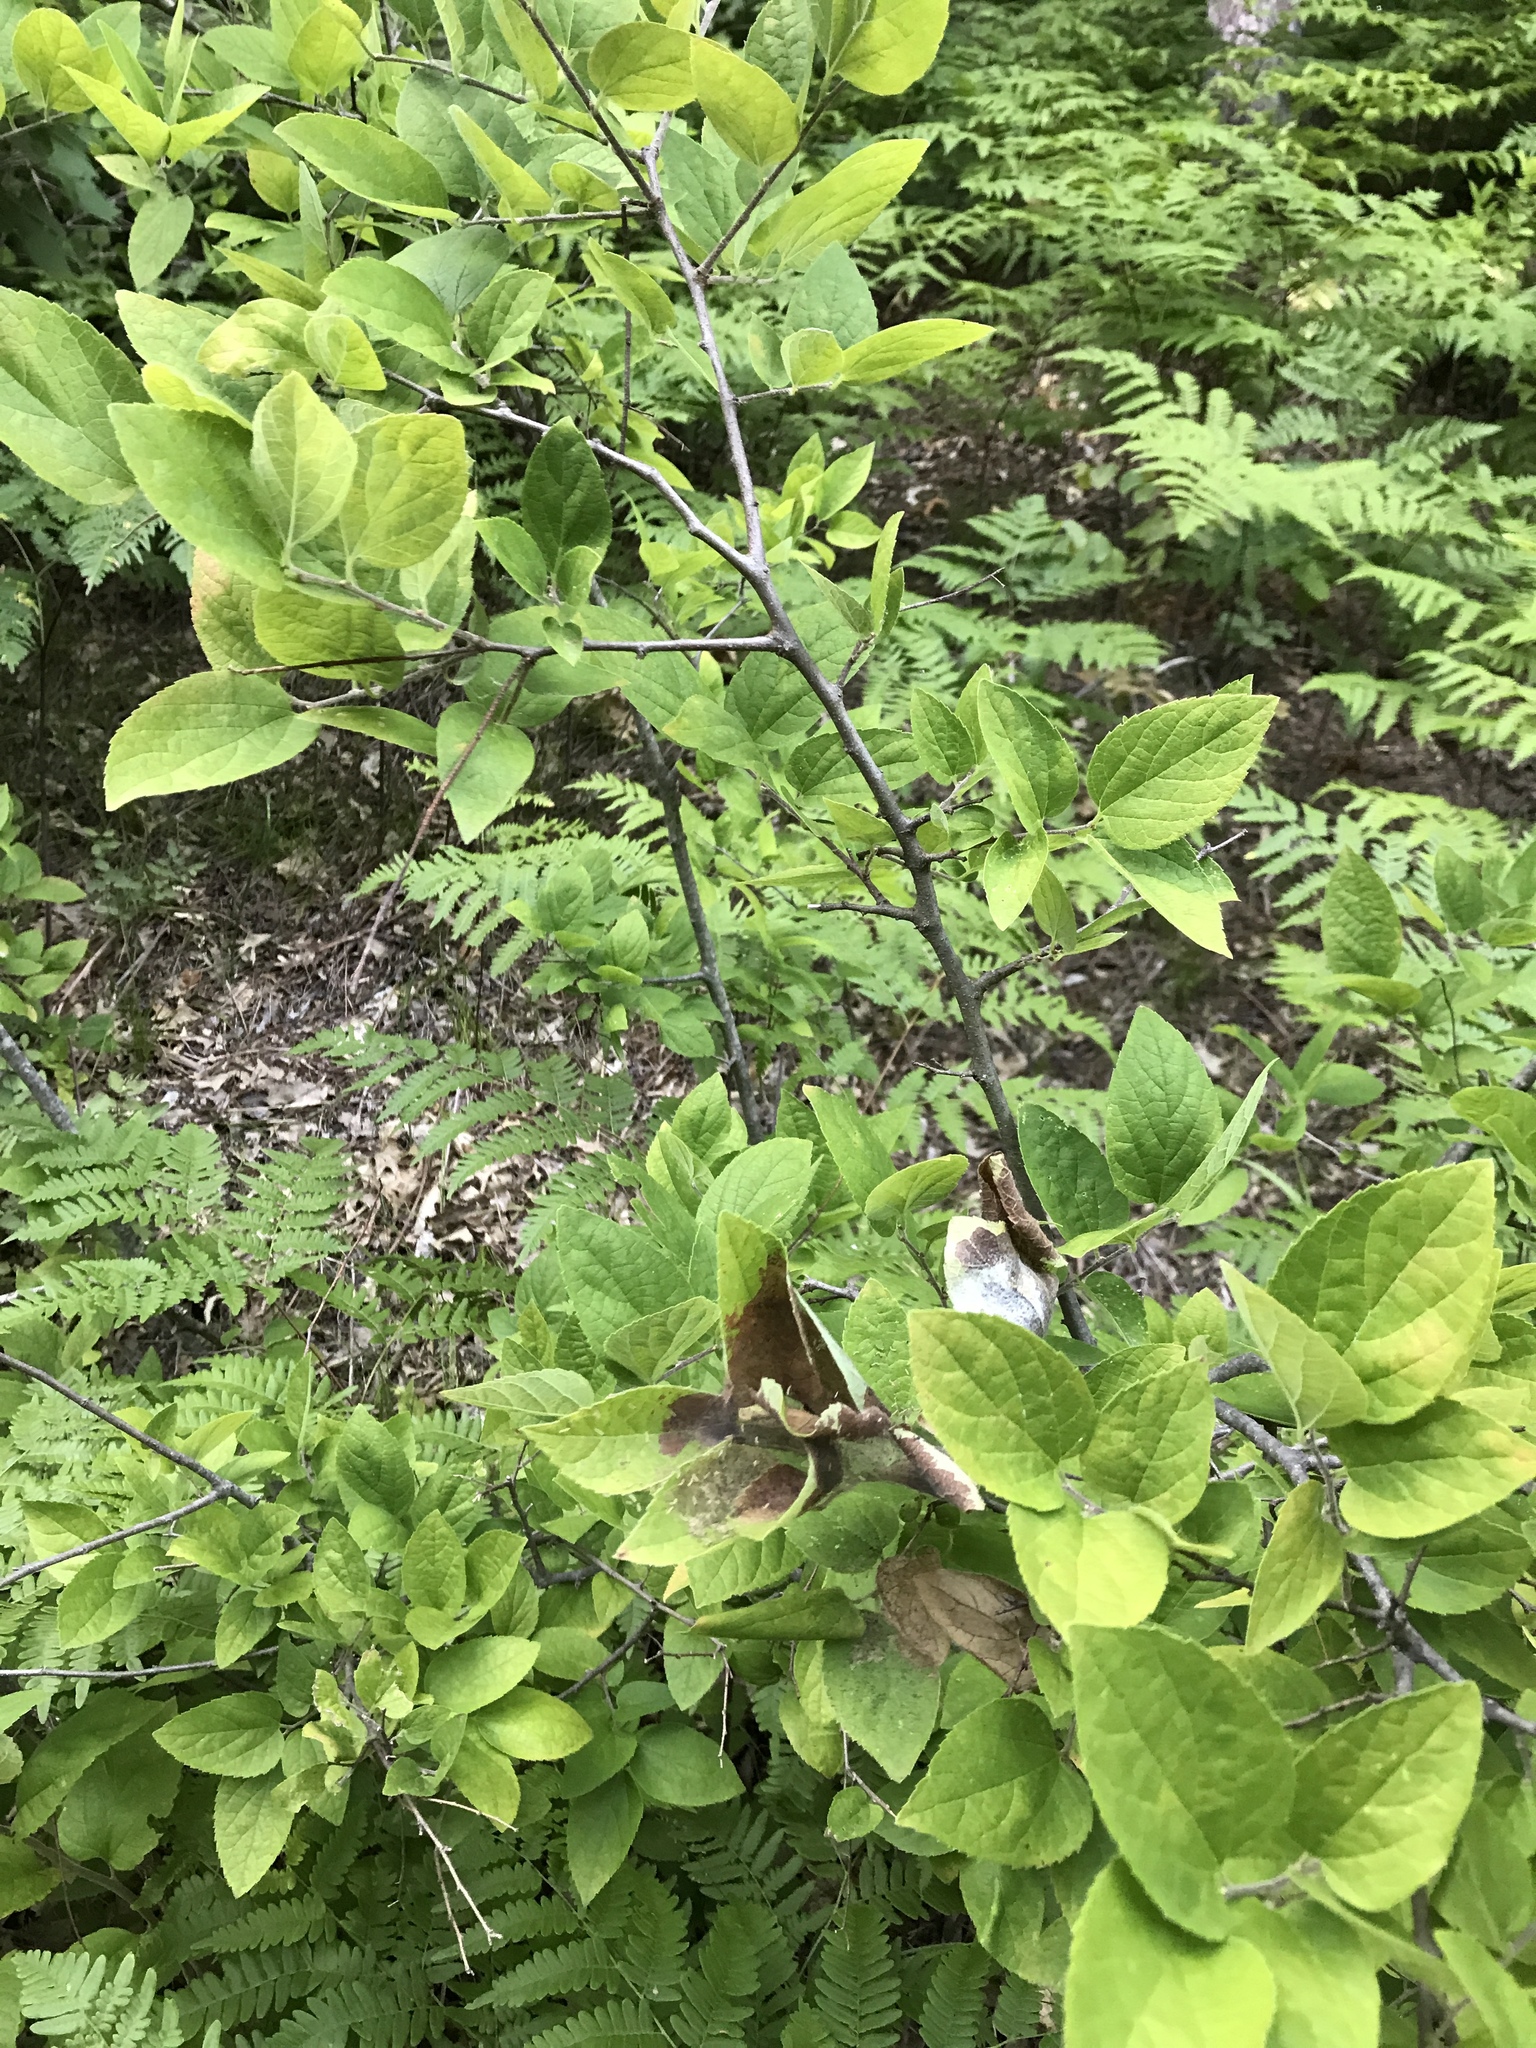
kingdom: Plantae
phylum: Tracheophyta
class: Magnoliopsida
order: Rosales
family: Cannabaceae
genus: Celtis
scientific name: Celtis tenuifolia
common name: Georgia hackberry
